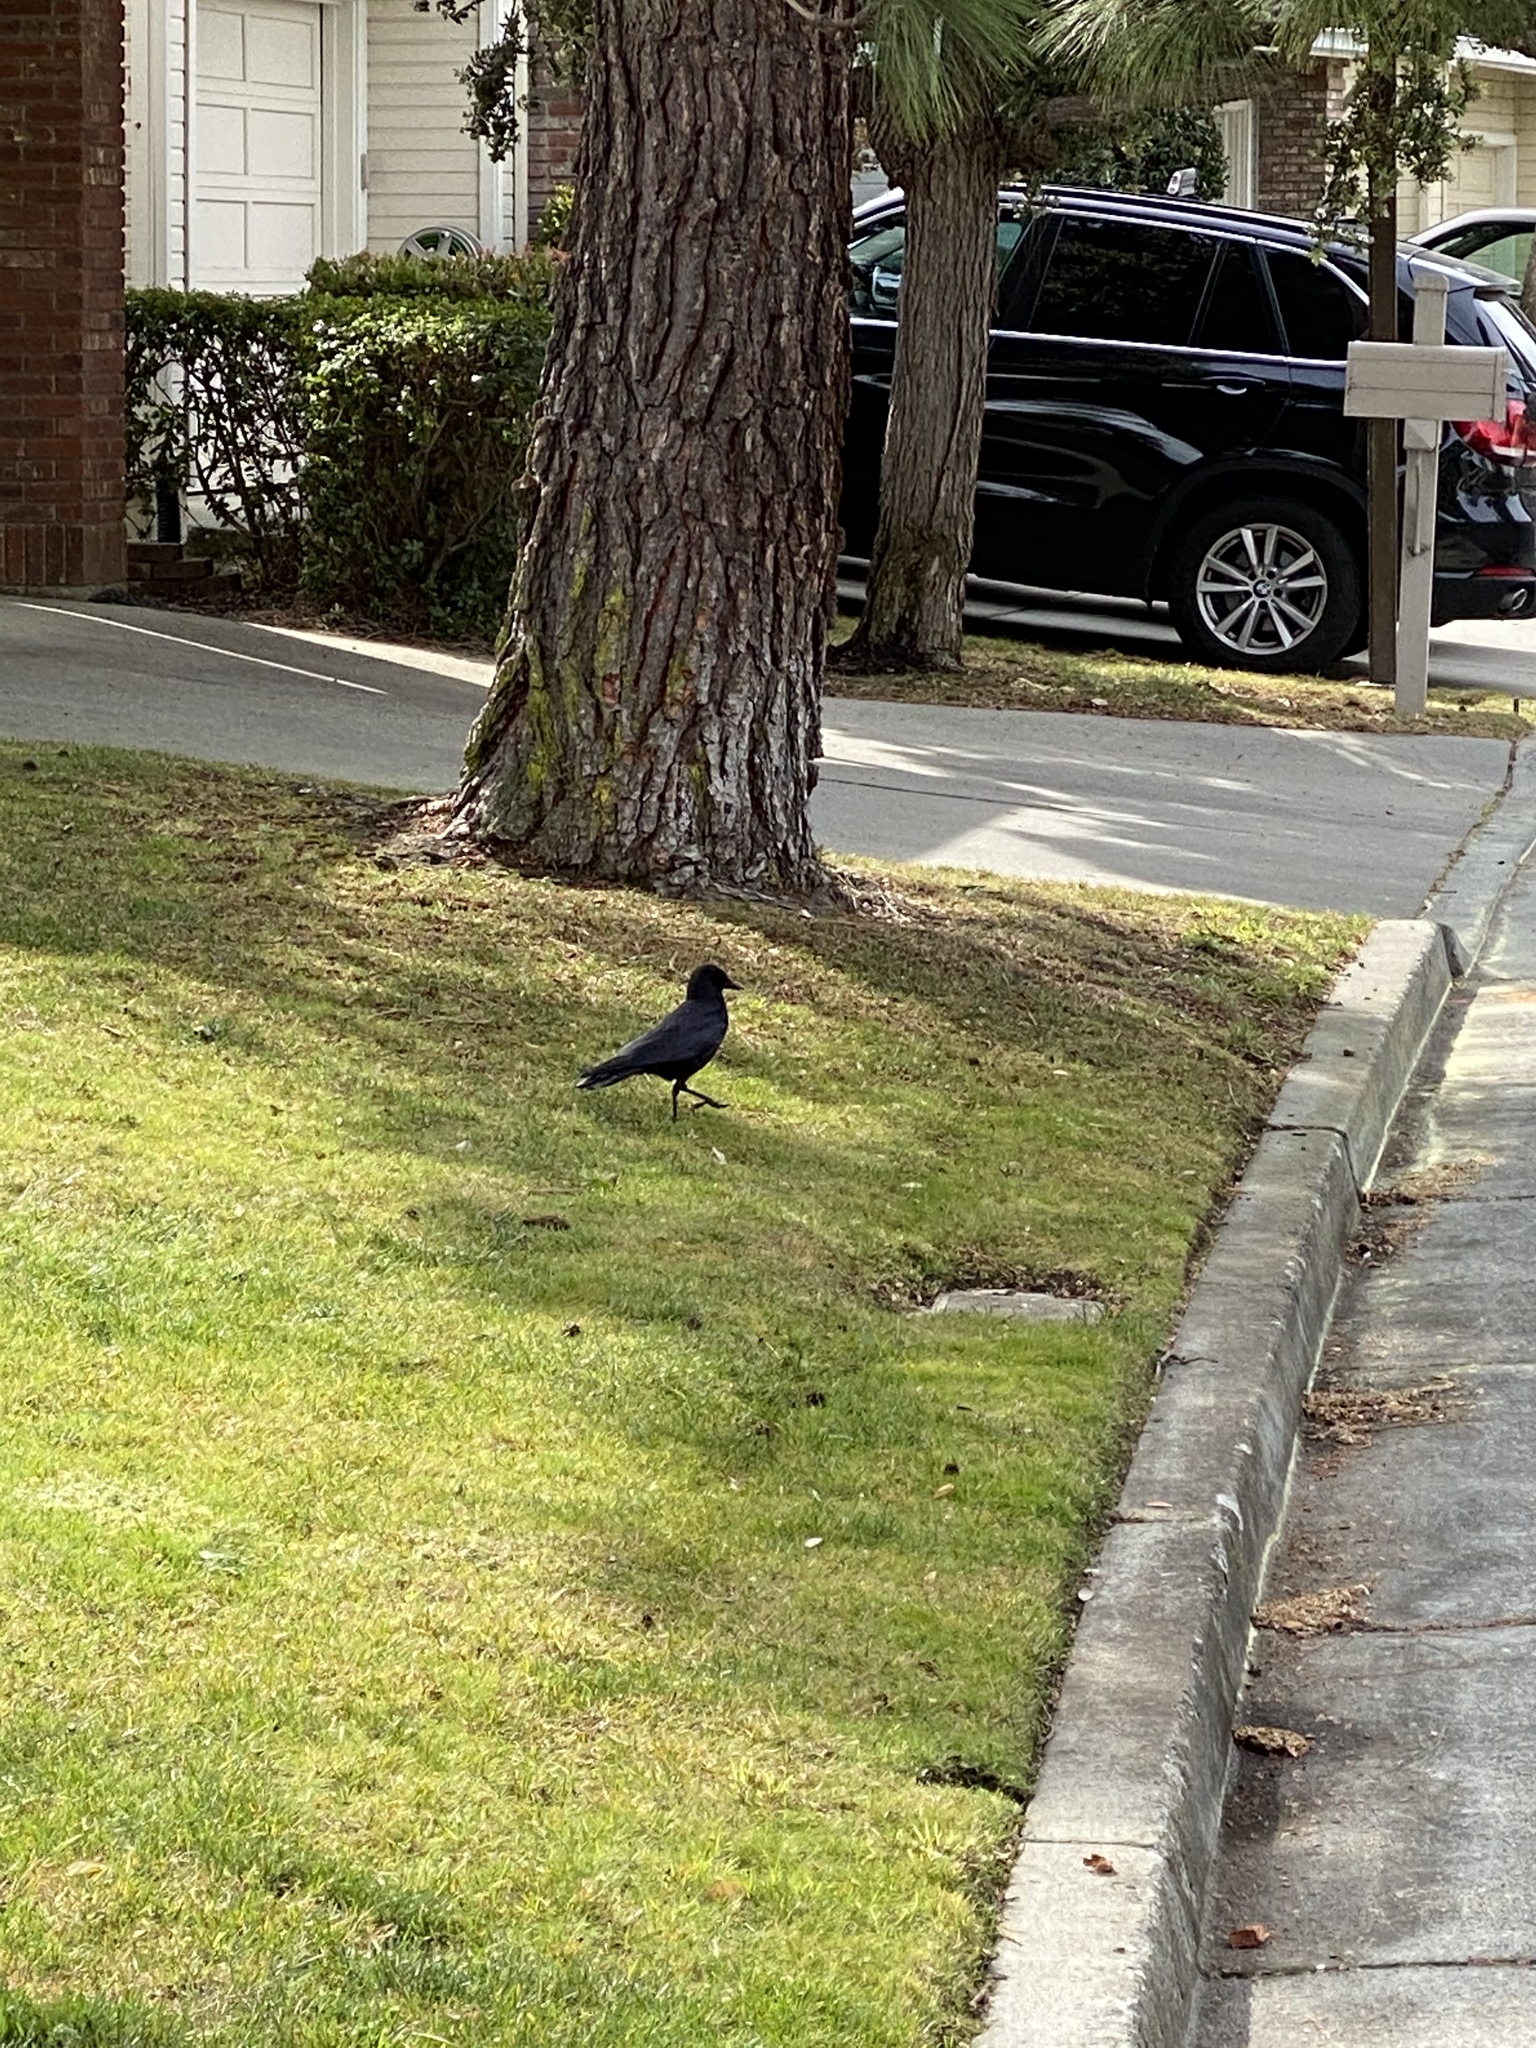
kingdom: Animalia
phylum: Chordata
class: Aves
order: Passeriformes
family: Corvidae
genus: Corvus
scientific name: Corvus brachyrhynchos
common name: American crow
